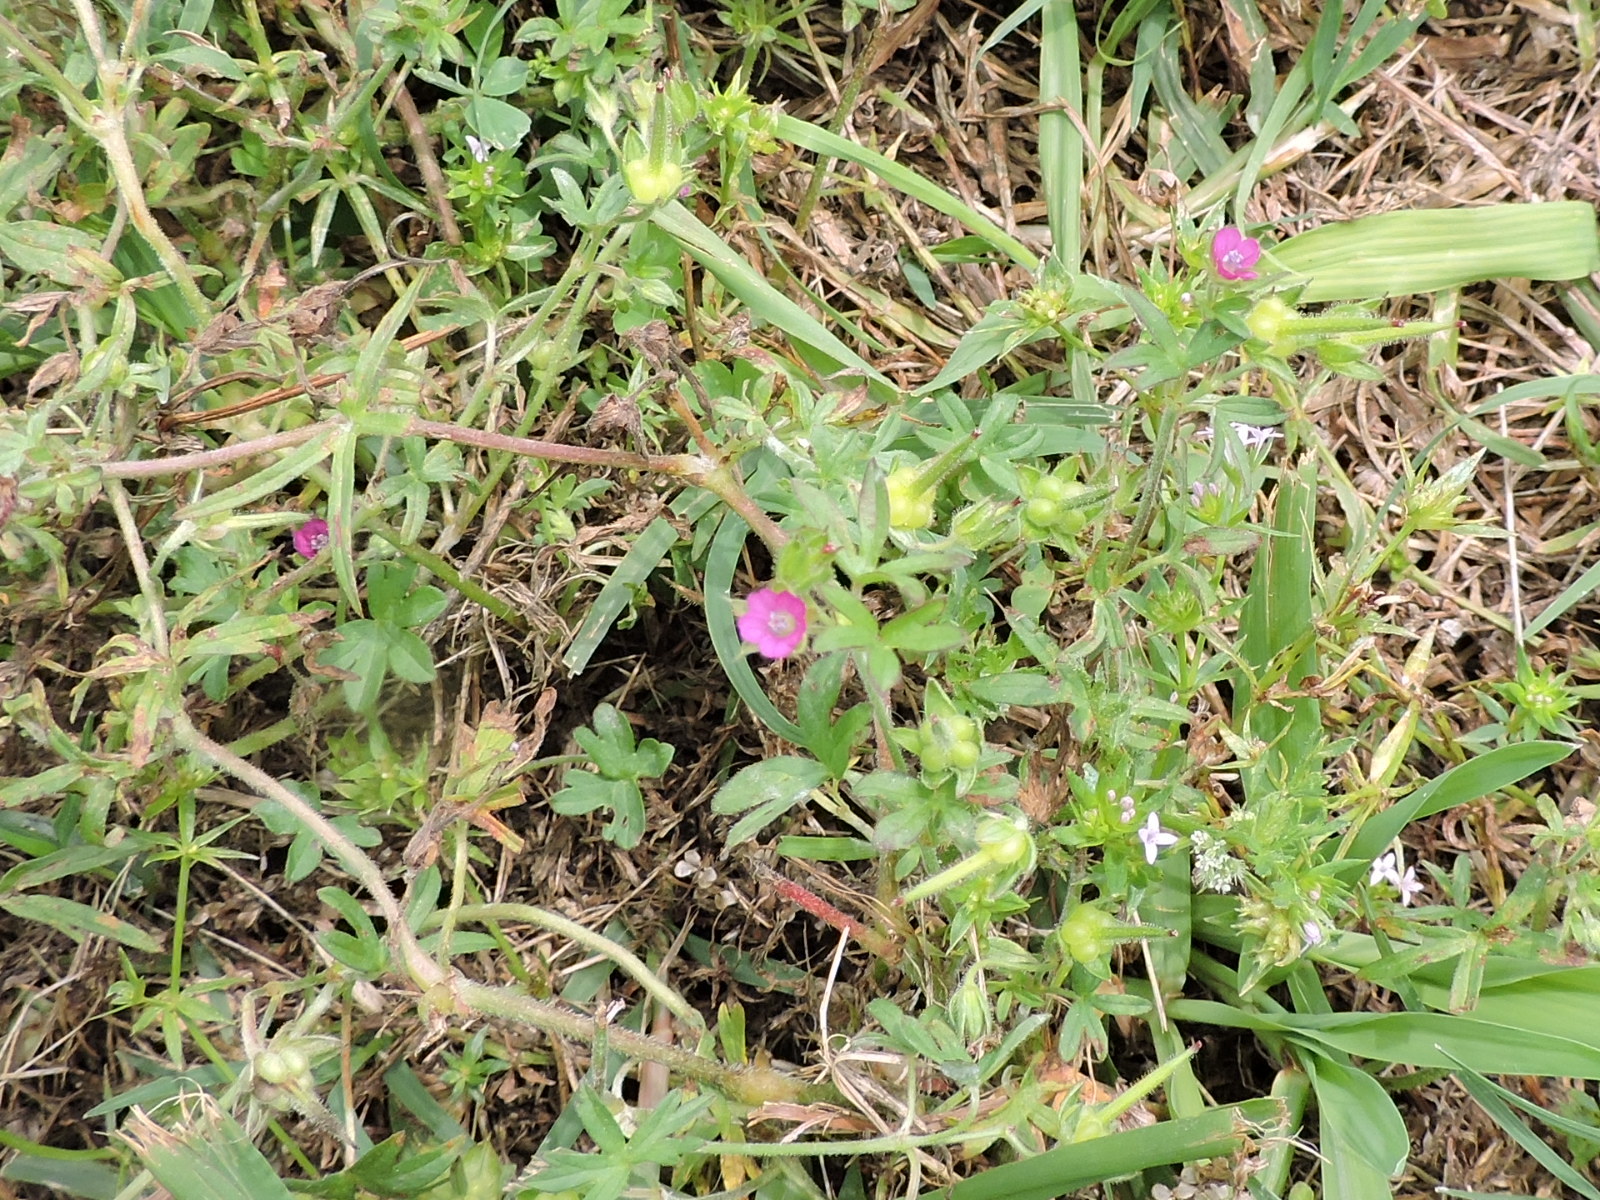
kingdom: Plantae
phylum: Tracheophyta
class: Magnoliopsida
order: Geraniales
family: Geraniaceae
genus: Geranium
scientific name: Geranium dissectum
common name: Cut-leaved crane's-bill
